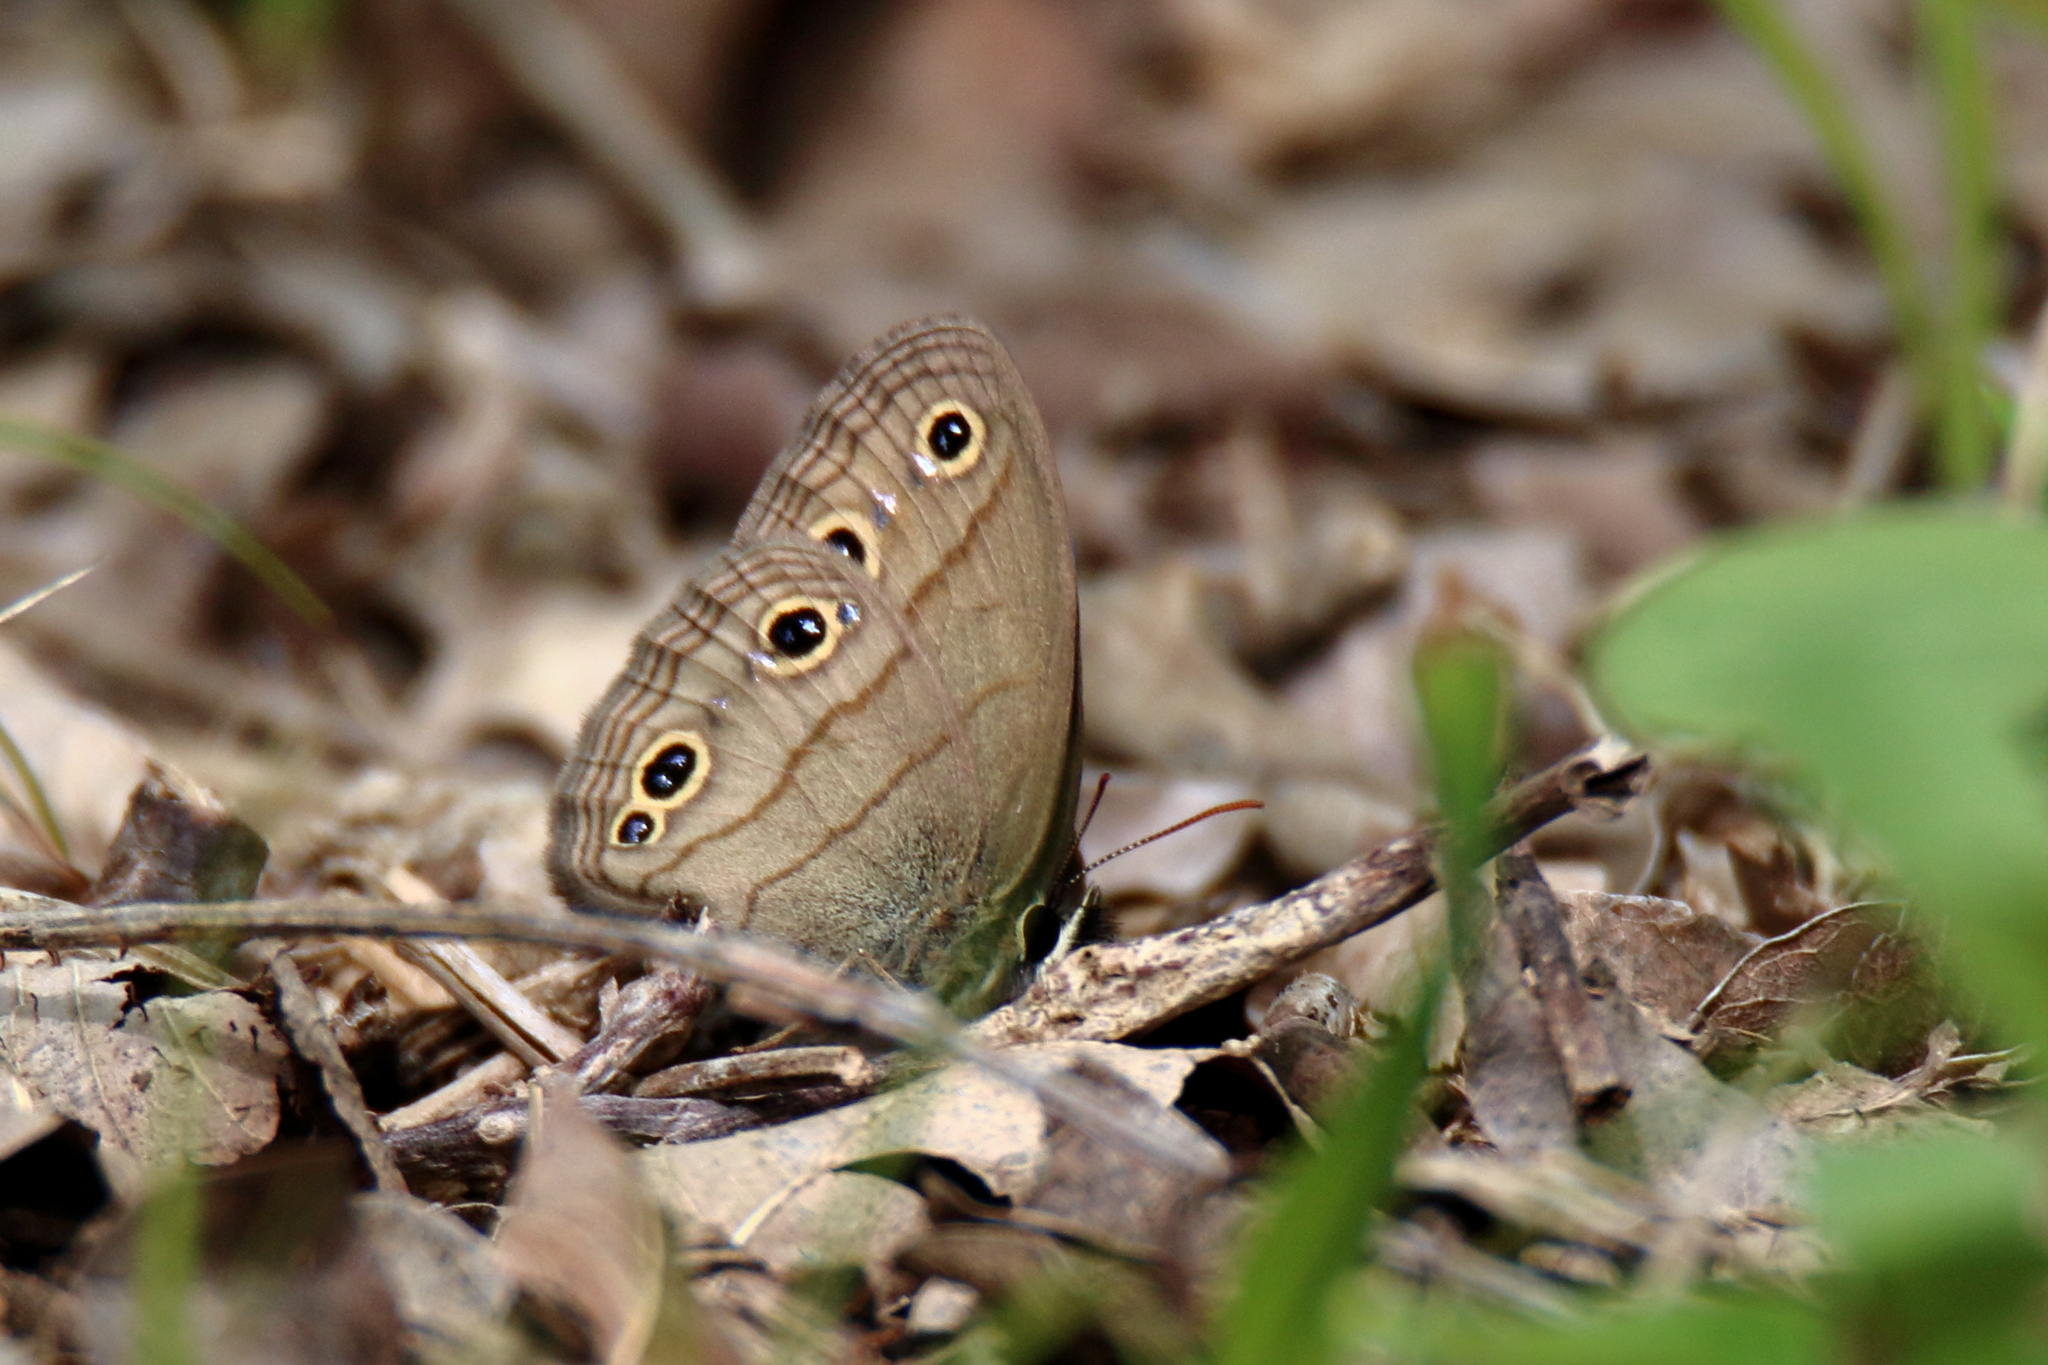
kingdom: Animalia
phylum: Arthropoda
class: Insecta
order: Lepidoptera
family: Nymphalidae
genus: Euptychia
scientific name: Euptychia cymela
